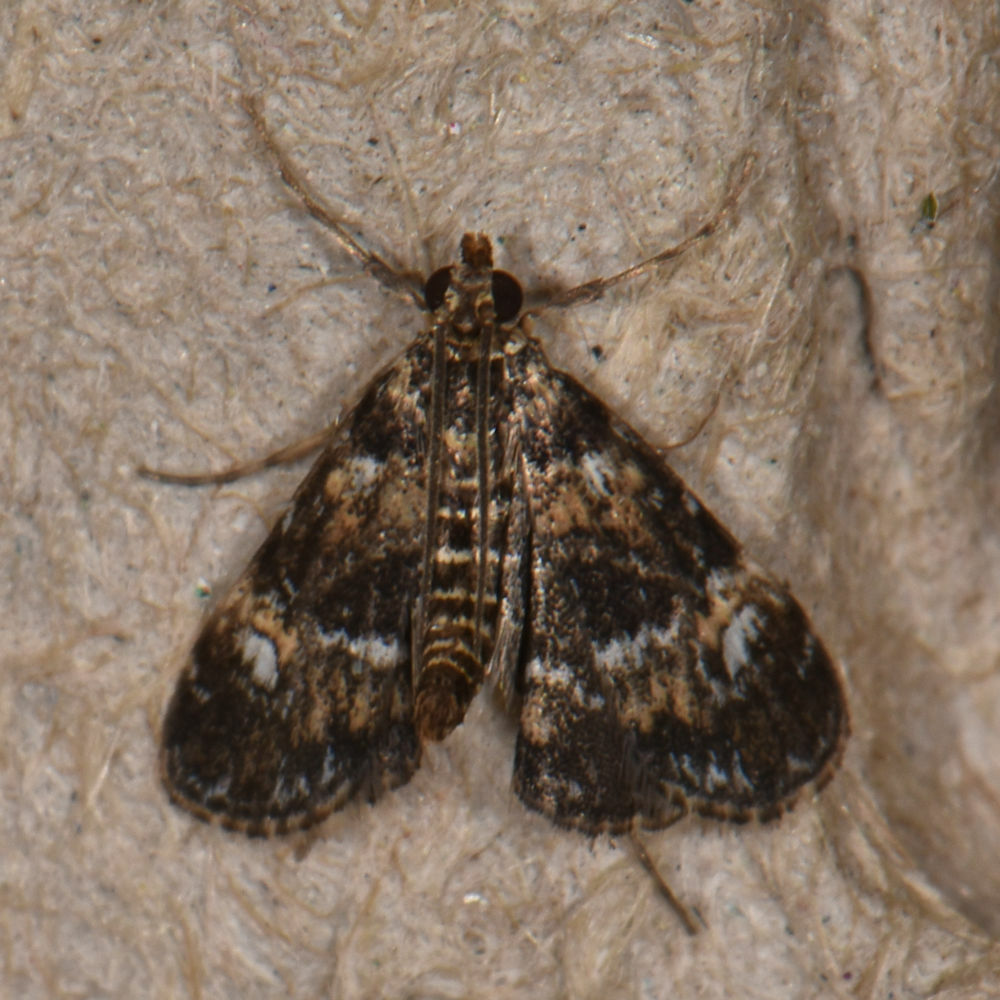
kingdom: Animalia
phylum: Arthropoda
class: Insecta
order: Lepidoptera
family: Crambidae
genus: Elophila
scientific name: Elophila obliteralis
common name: Waterlily leafcutter moth
